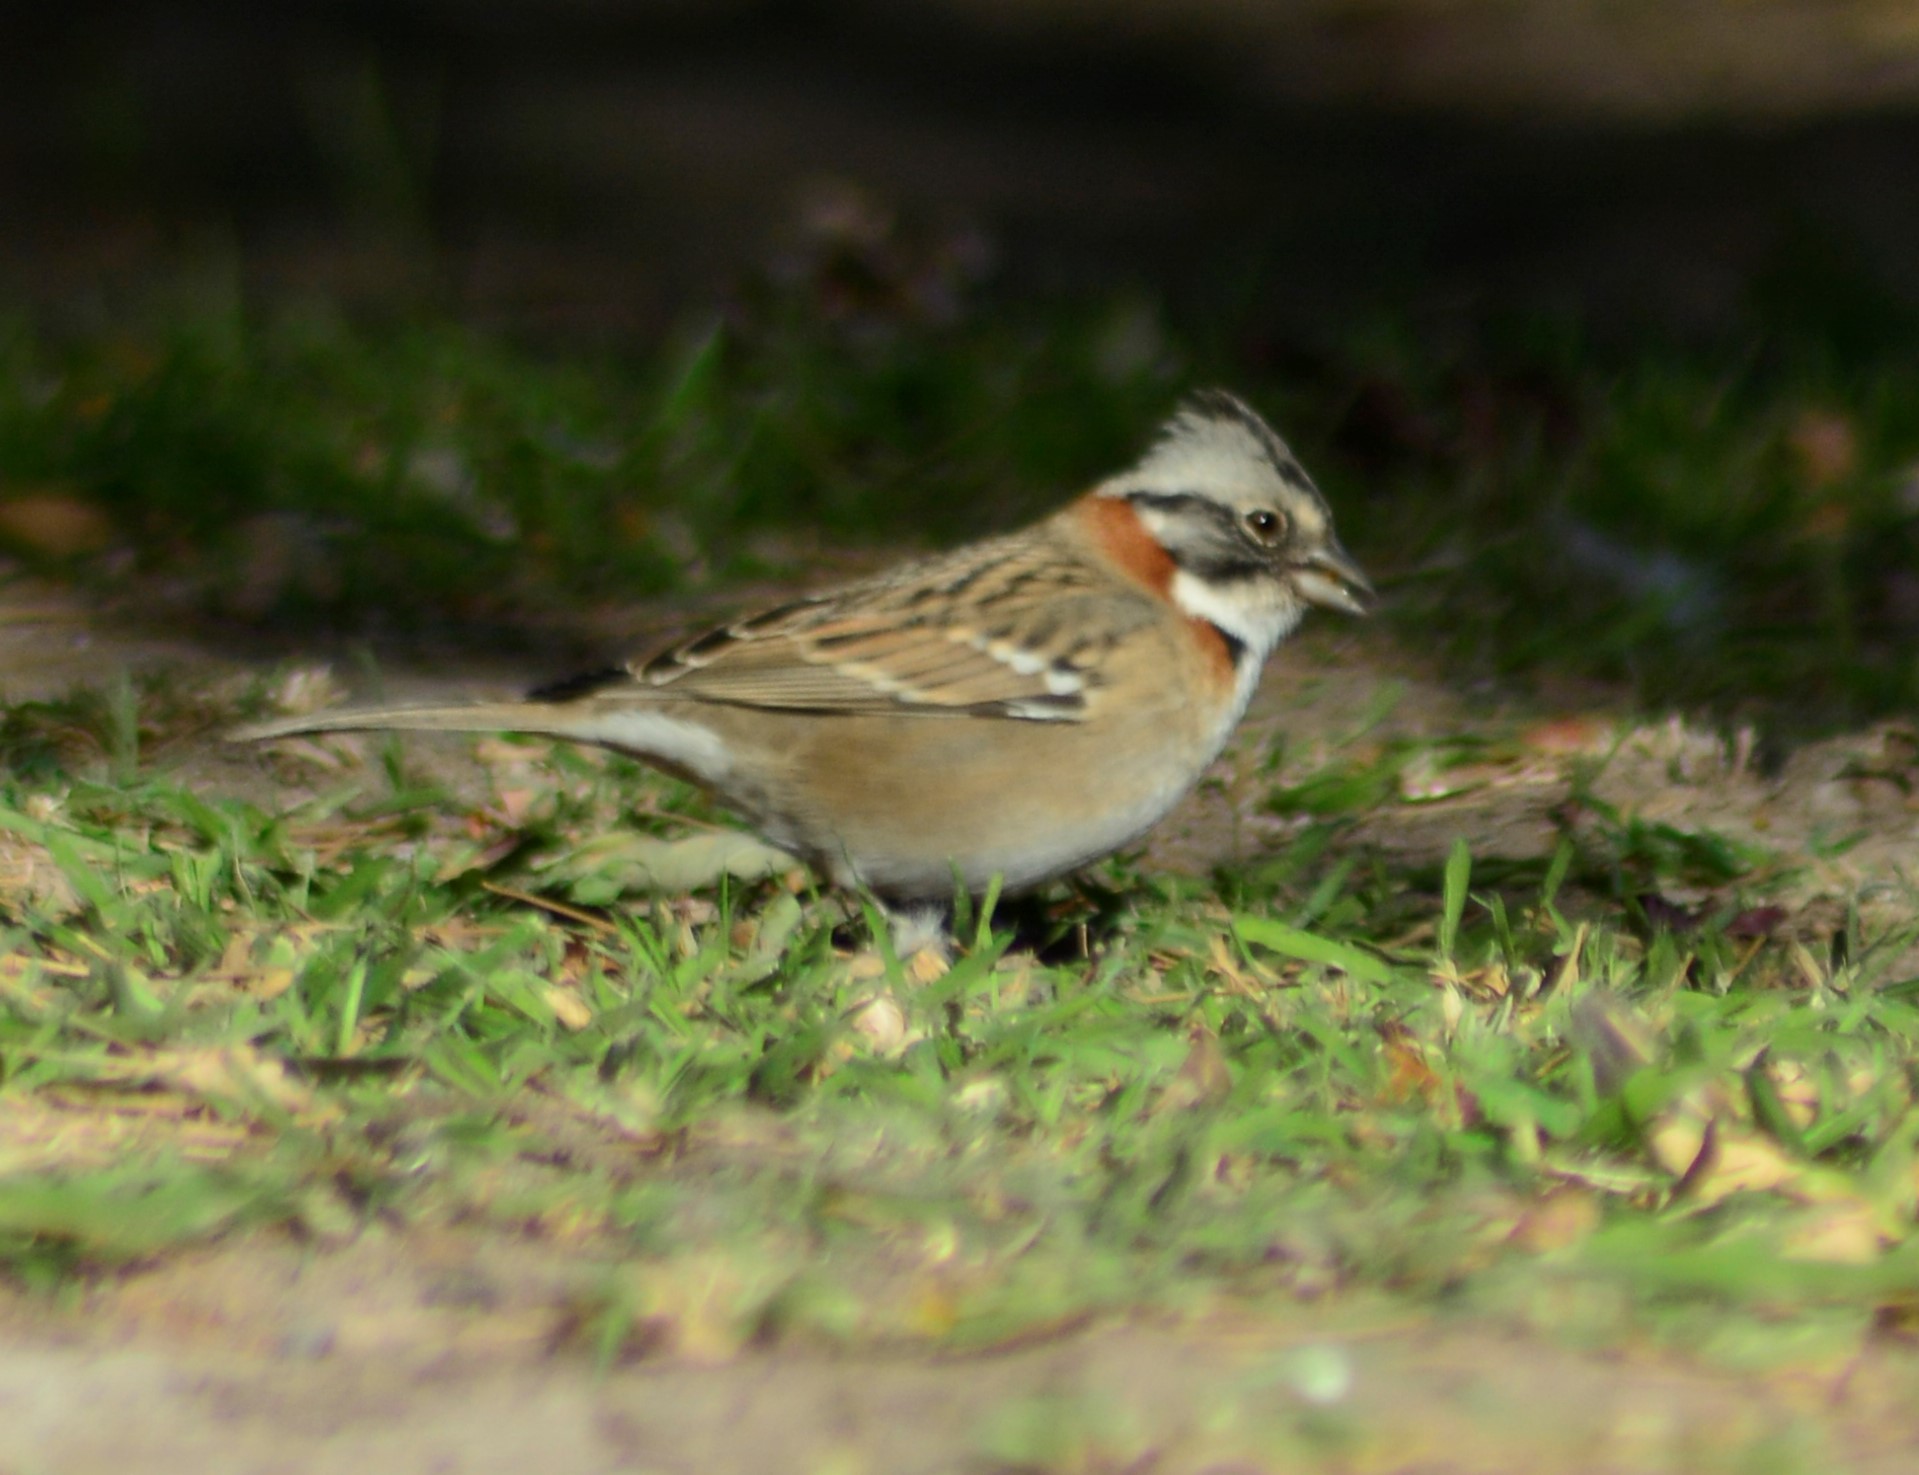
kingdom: Animalia
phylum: Chordata
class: Aves
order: Passeriformes
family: Passerellidae
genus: Zonotrichia
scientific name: Zonotrichia capensis
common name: Rufous-collared sparrow
